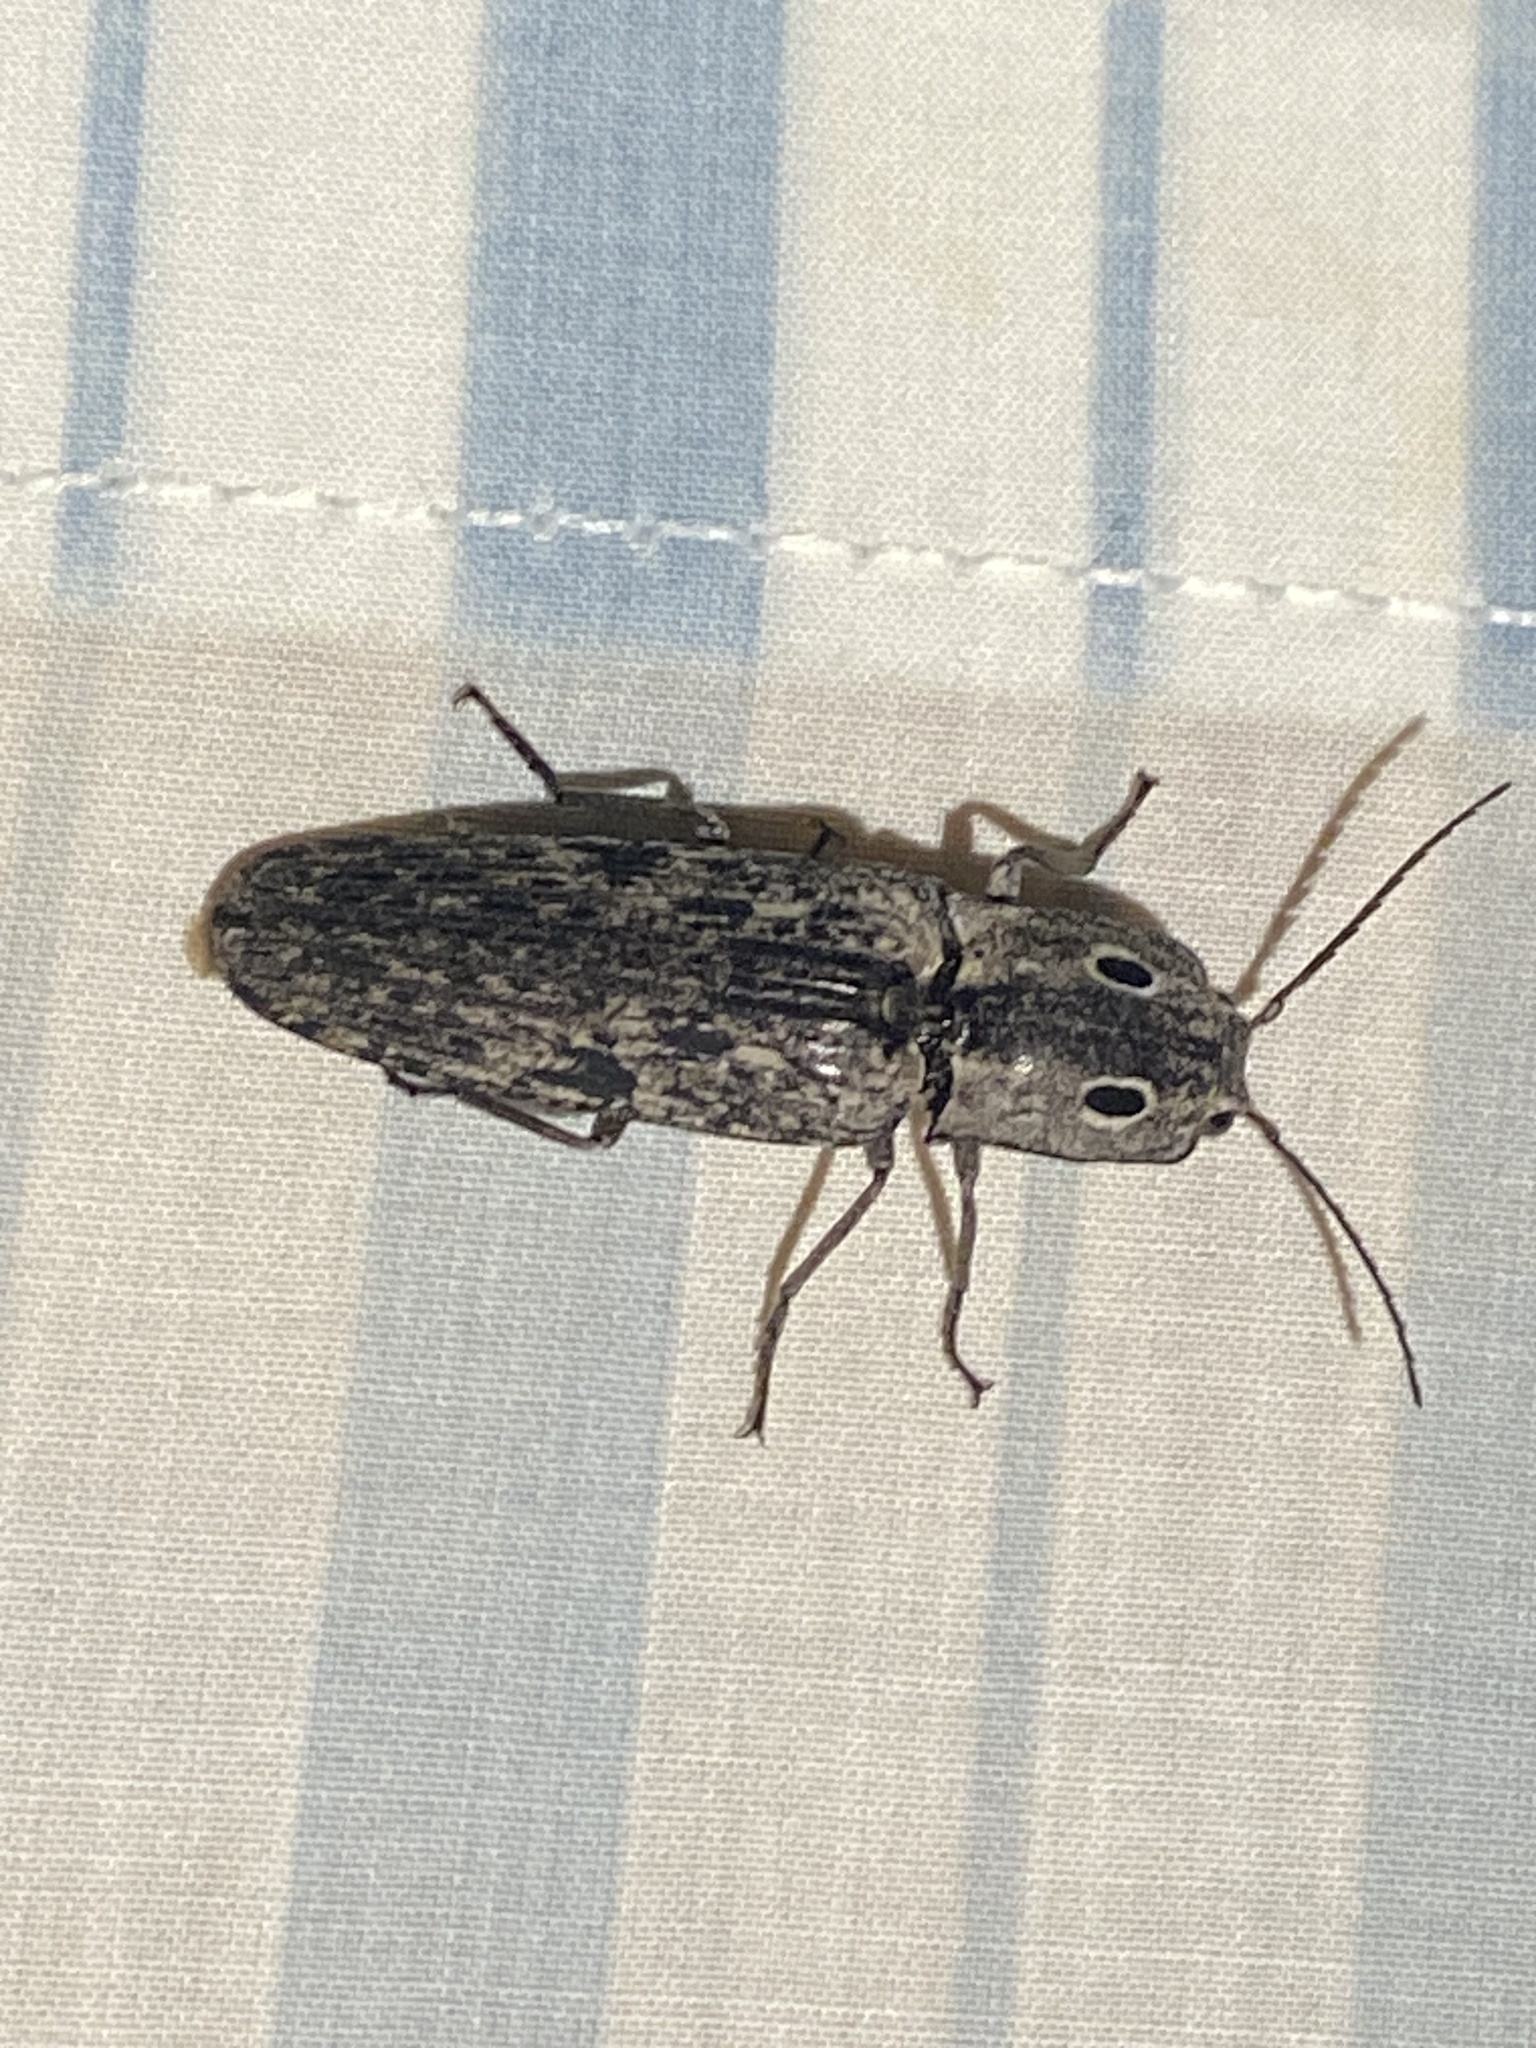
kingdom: Animalia
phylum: Arthropoda
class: Insecta
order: Coleoptera
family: Elateridae
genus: Alaus
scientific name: Alaus myops
